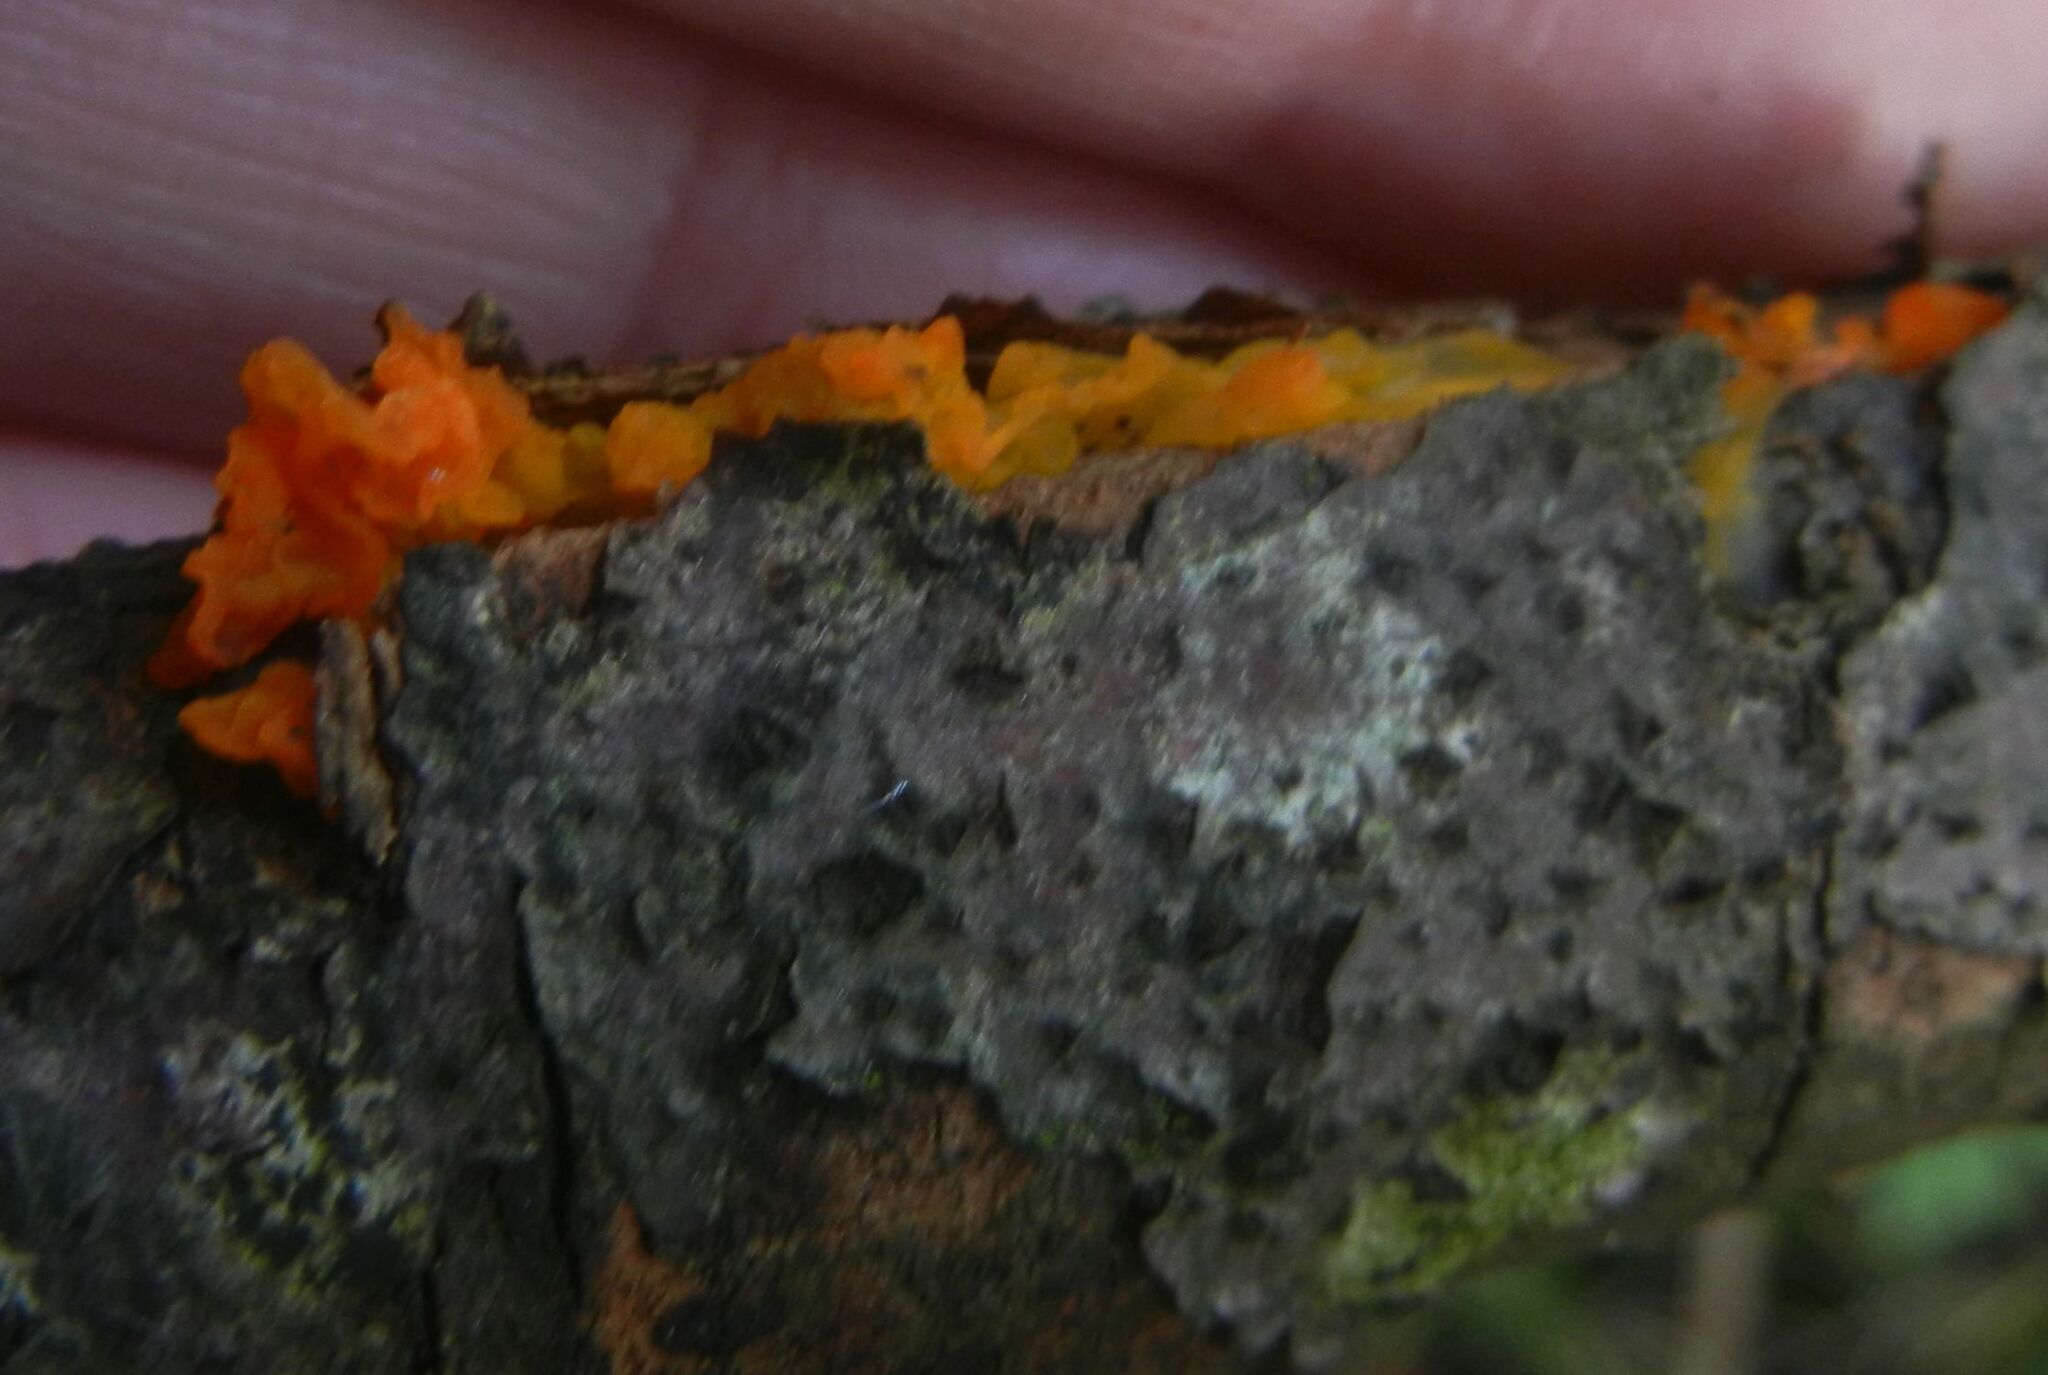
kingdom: Fungi
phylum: Basidiomycota
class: Tremellomycetes
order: Tremellales
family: Tremellaceae
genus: Tremella
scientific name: Tremella mesenterica
